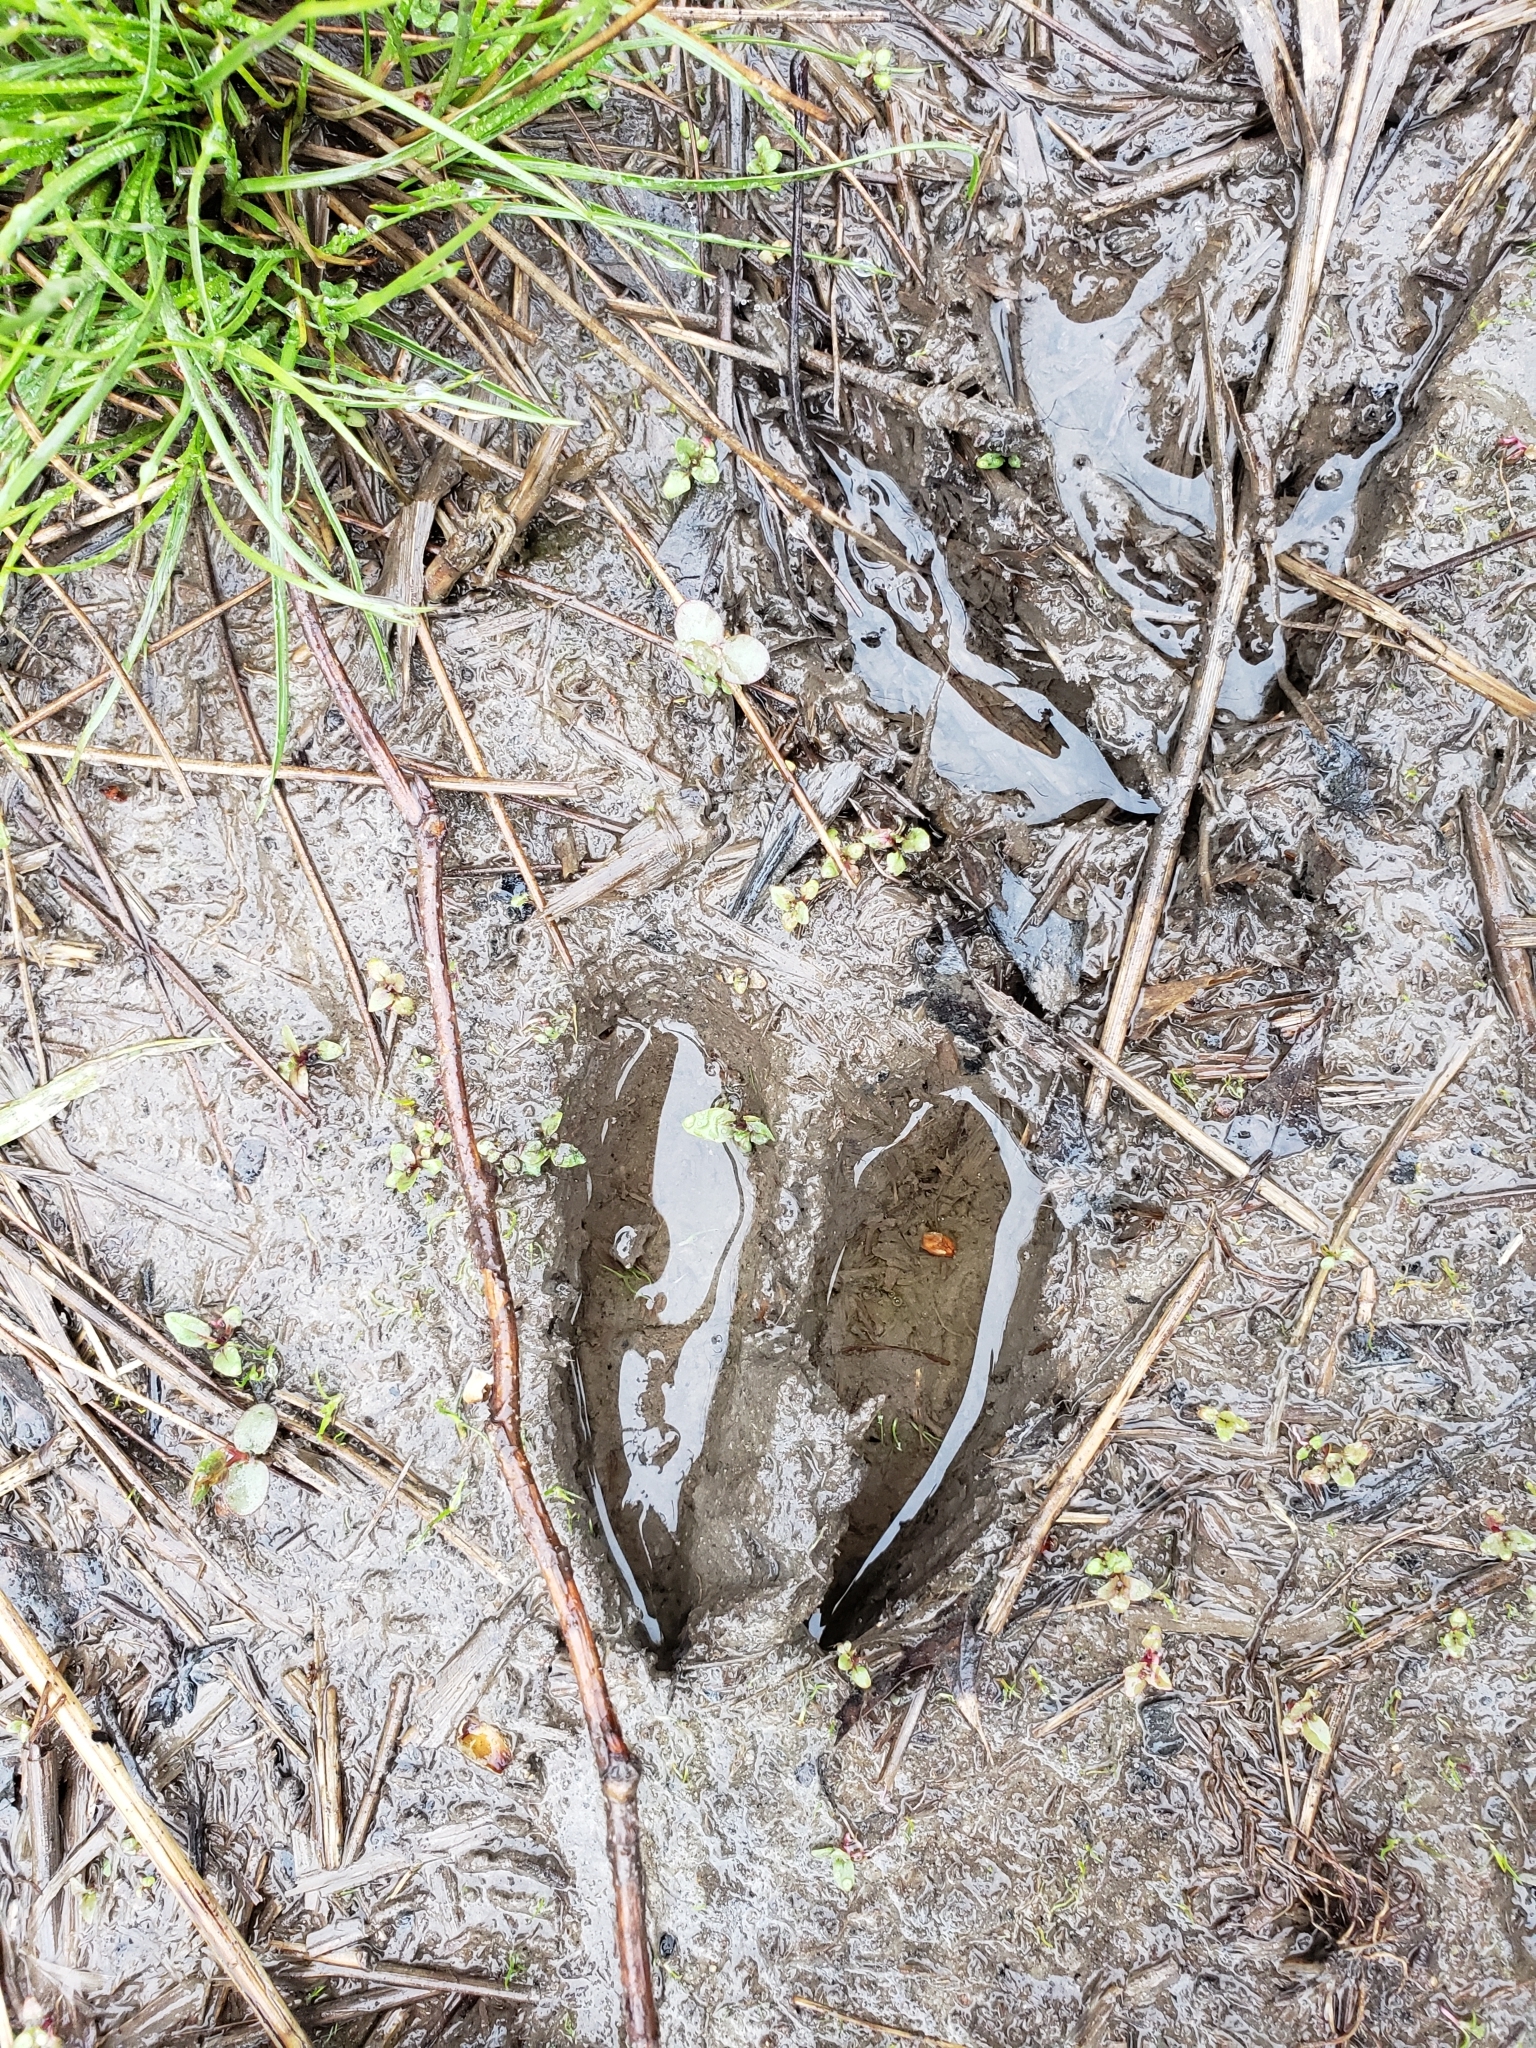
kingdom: Animalia
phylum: Chordata
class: Mammalia
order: Artiodactyla
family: Cervidae
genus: Odocoileus
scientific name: Odocoileus virginianus
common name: White-tailed deer
